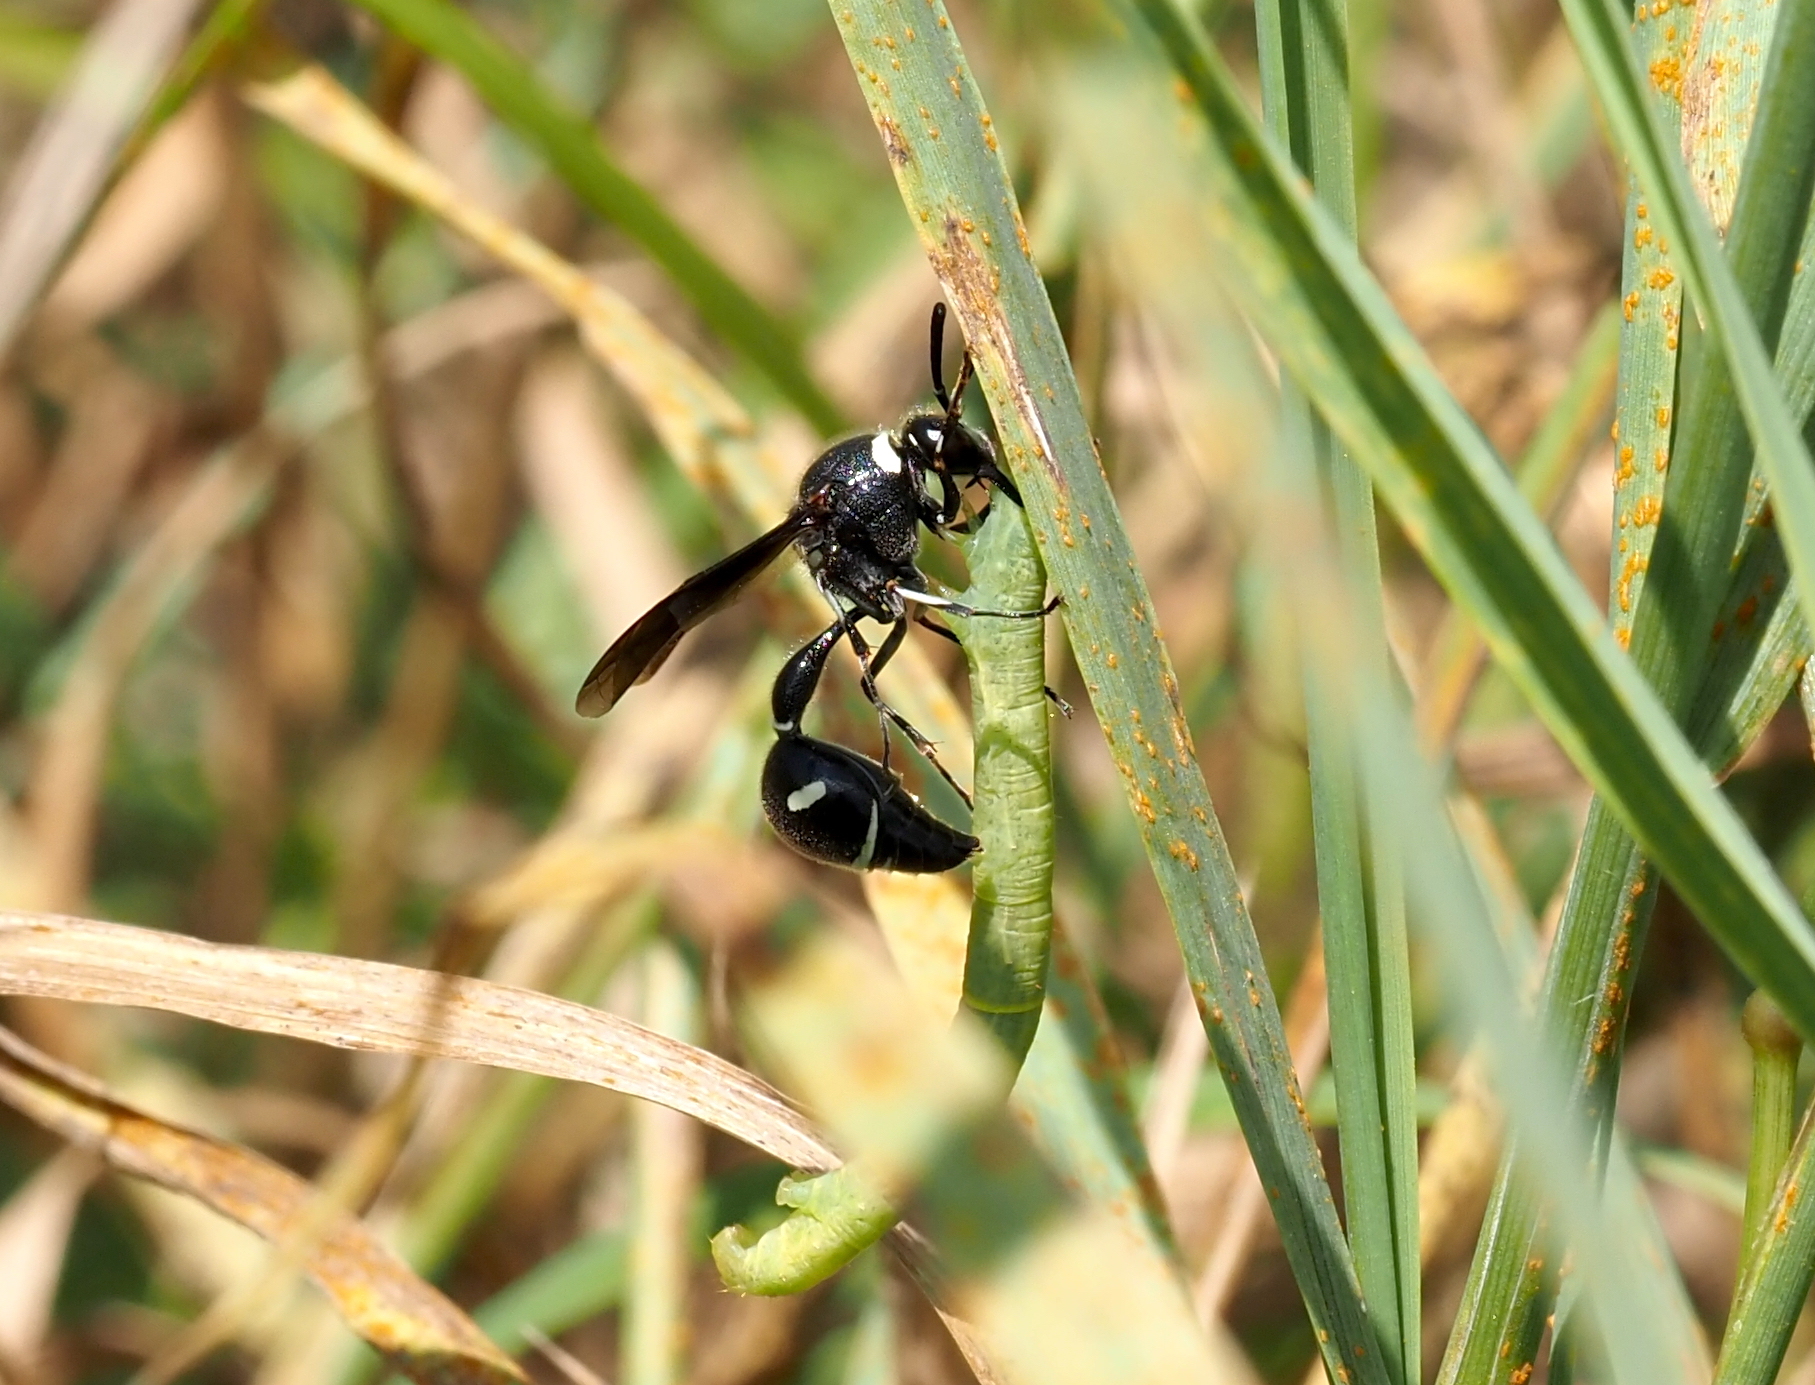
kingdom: Animalia
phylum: Arthropoda
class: Insecta
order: Hymenoptera
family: Vespidae
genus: Eumenes
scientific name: Eumenes fraternus
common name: Fraternal potter wasp
